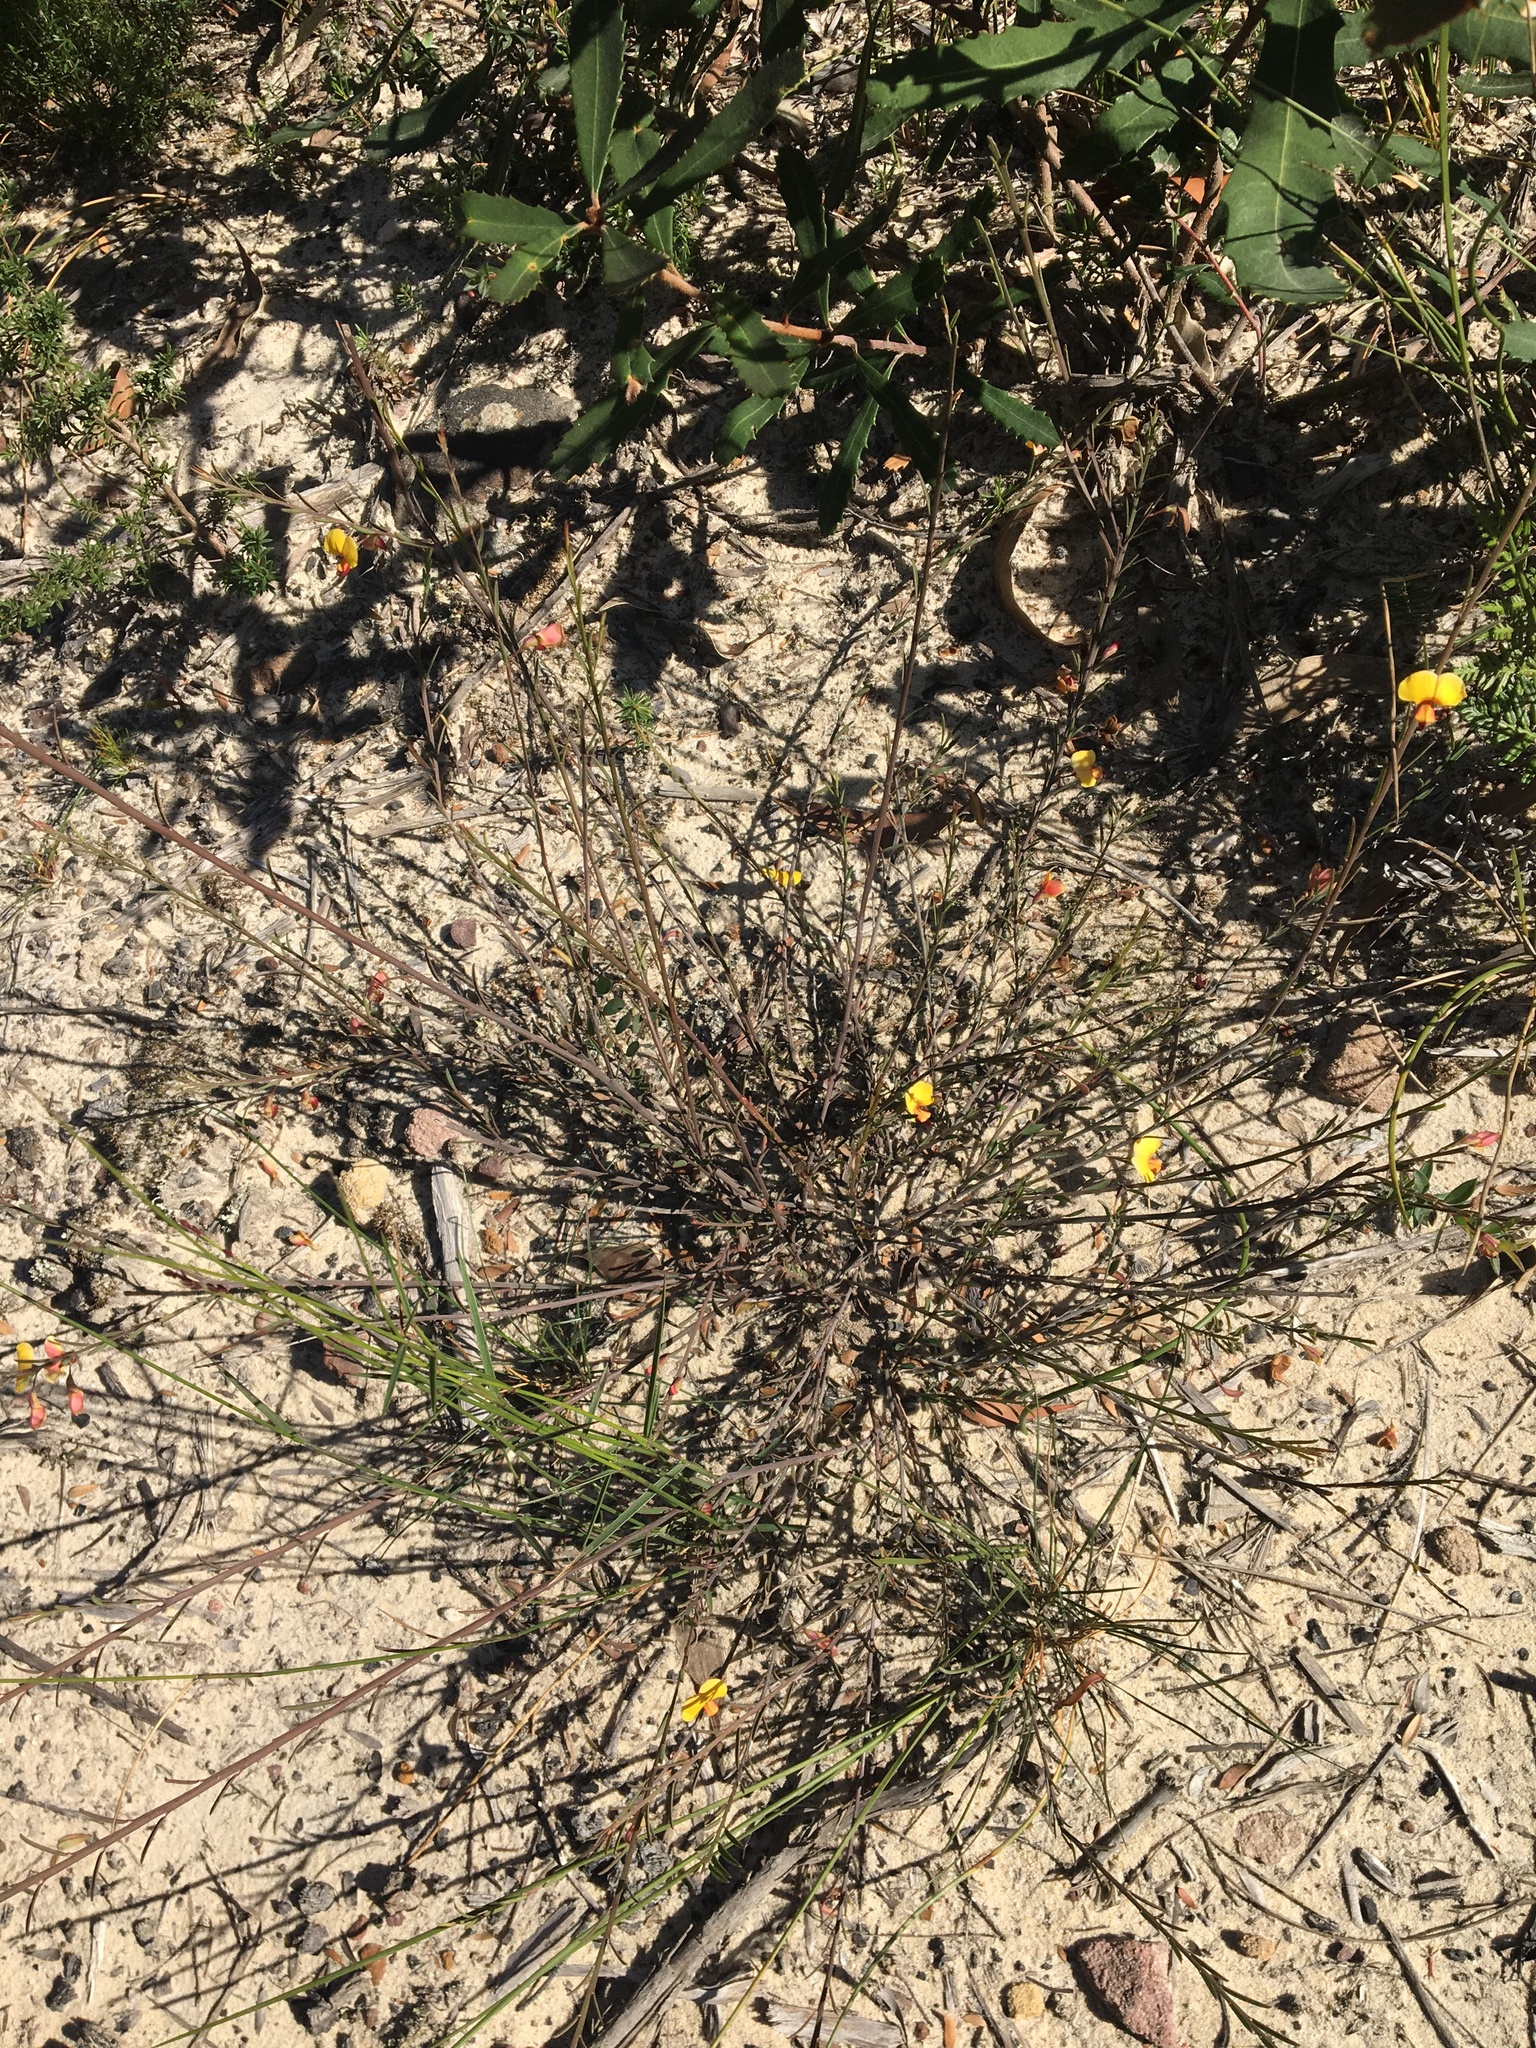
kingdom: Plantae
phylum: Tracheophyta
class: Magnoliopsida
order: Fabales
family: Fabaceae
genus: Bossiaea
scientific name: Bossiaea heterophylla
